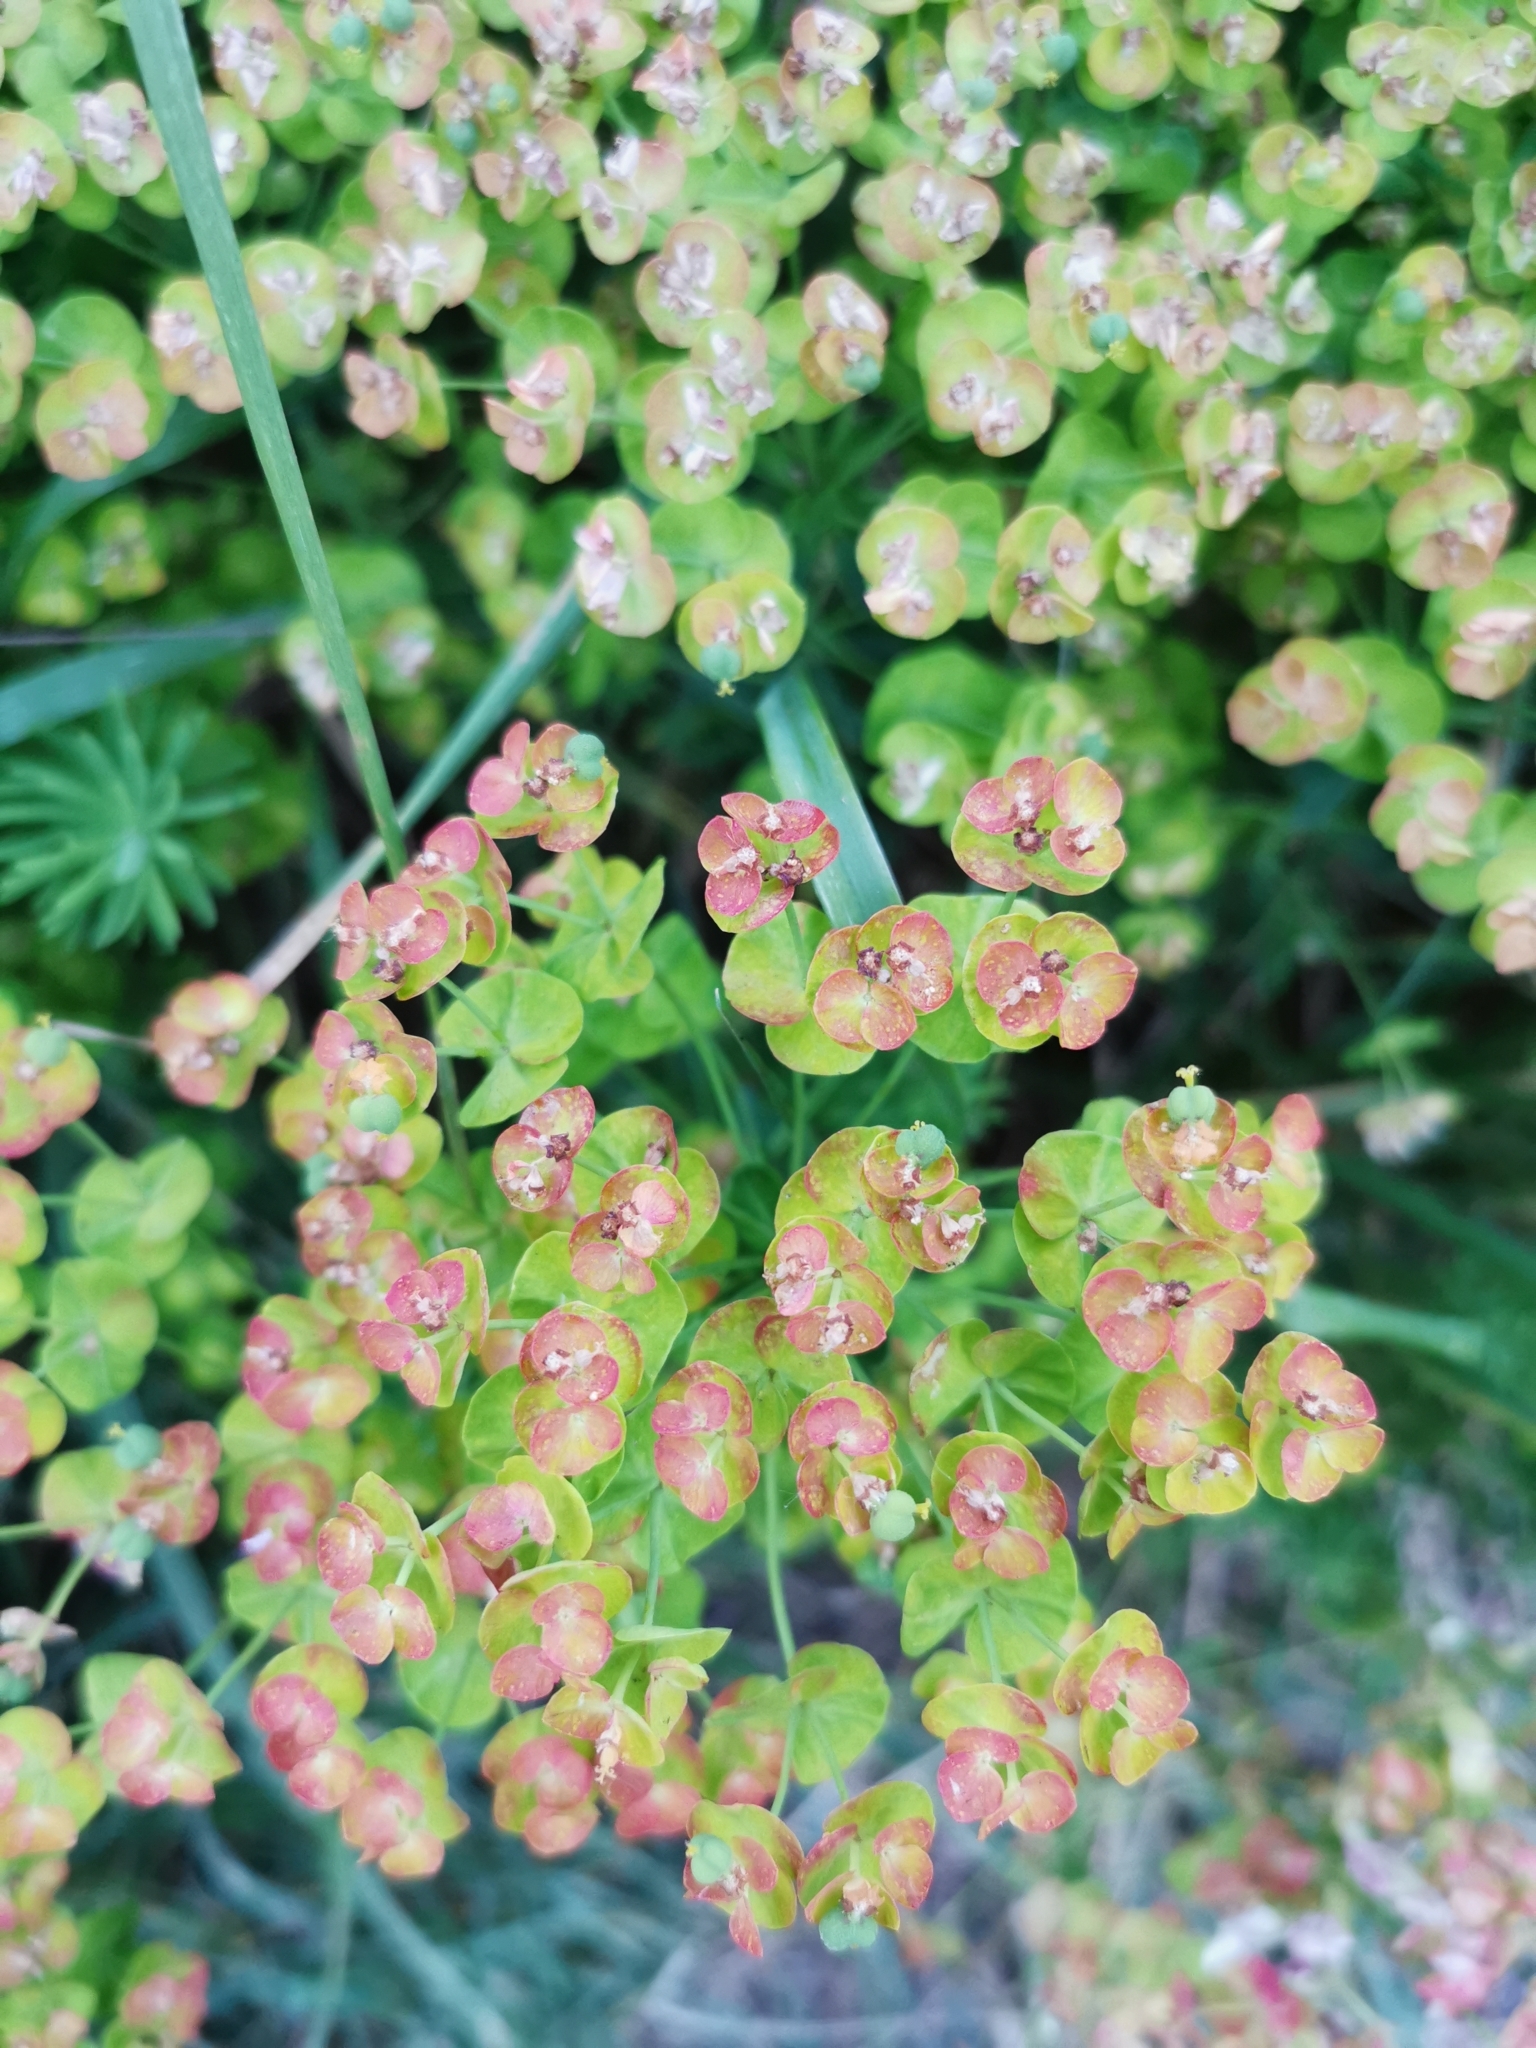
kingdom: Plantae
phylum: Tracheophyta
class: Magnoliopsida
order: Malpighiales
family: Euphorbiaceae
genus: Euphorbia
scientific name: Euphorbia cyparissias
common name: Cypress spurge
